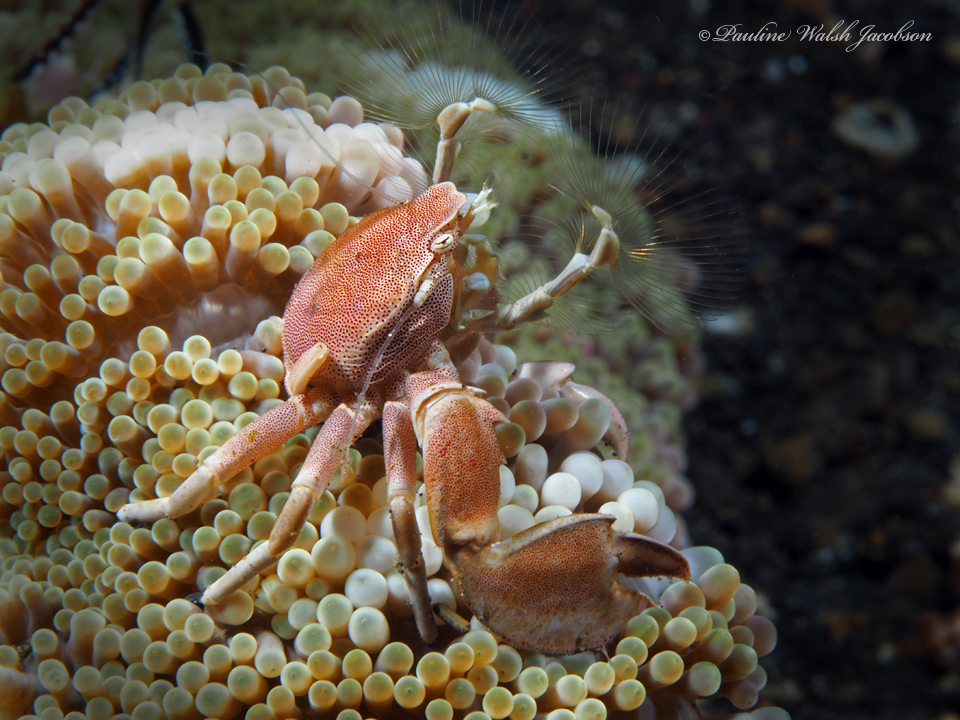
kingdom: Animalia
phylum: Arthropoda
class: Malacostraca
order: Decapoda
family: Porcellanidae
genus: Neopetrolisthes
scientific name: Neopetrolisthes maculatus
